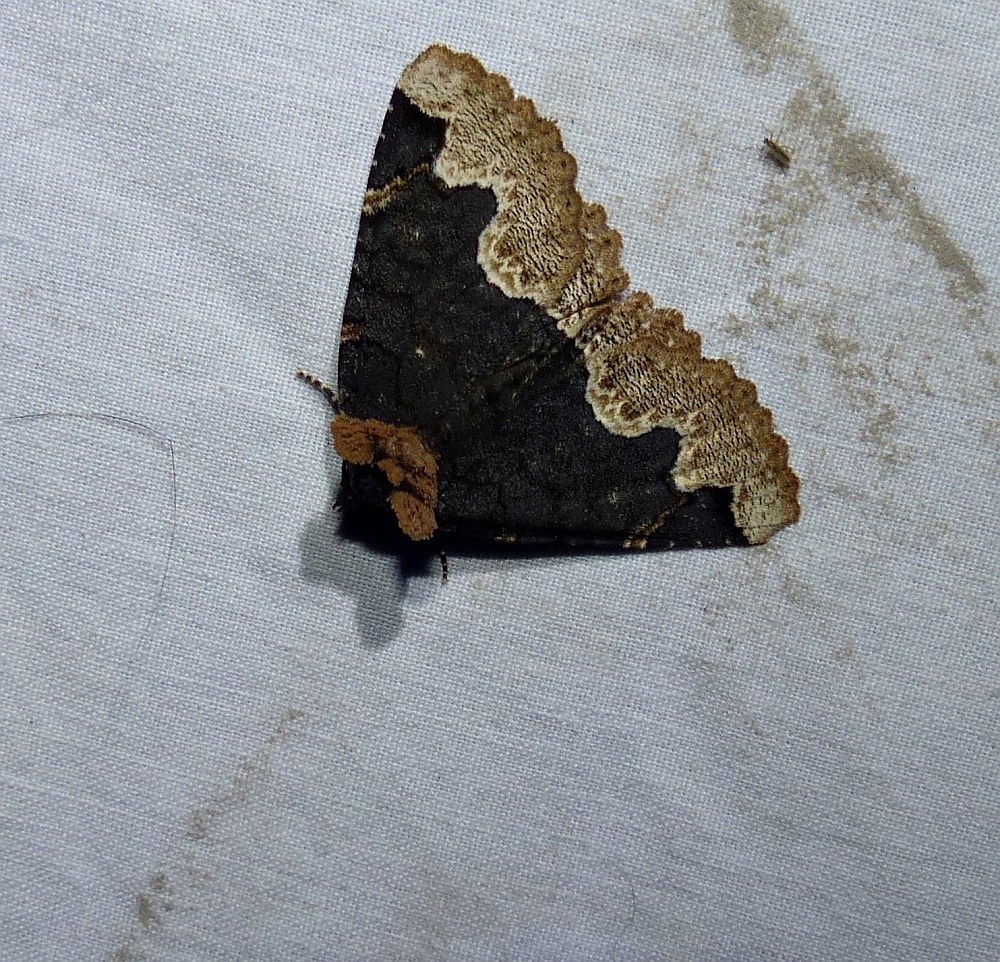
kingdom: Animalia
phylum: Arthropoda
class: Insecta
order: Lepidoptera
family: Erebidae
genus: Zale
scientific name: Zale horrida
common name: Horrid zale moth
